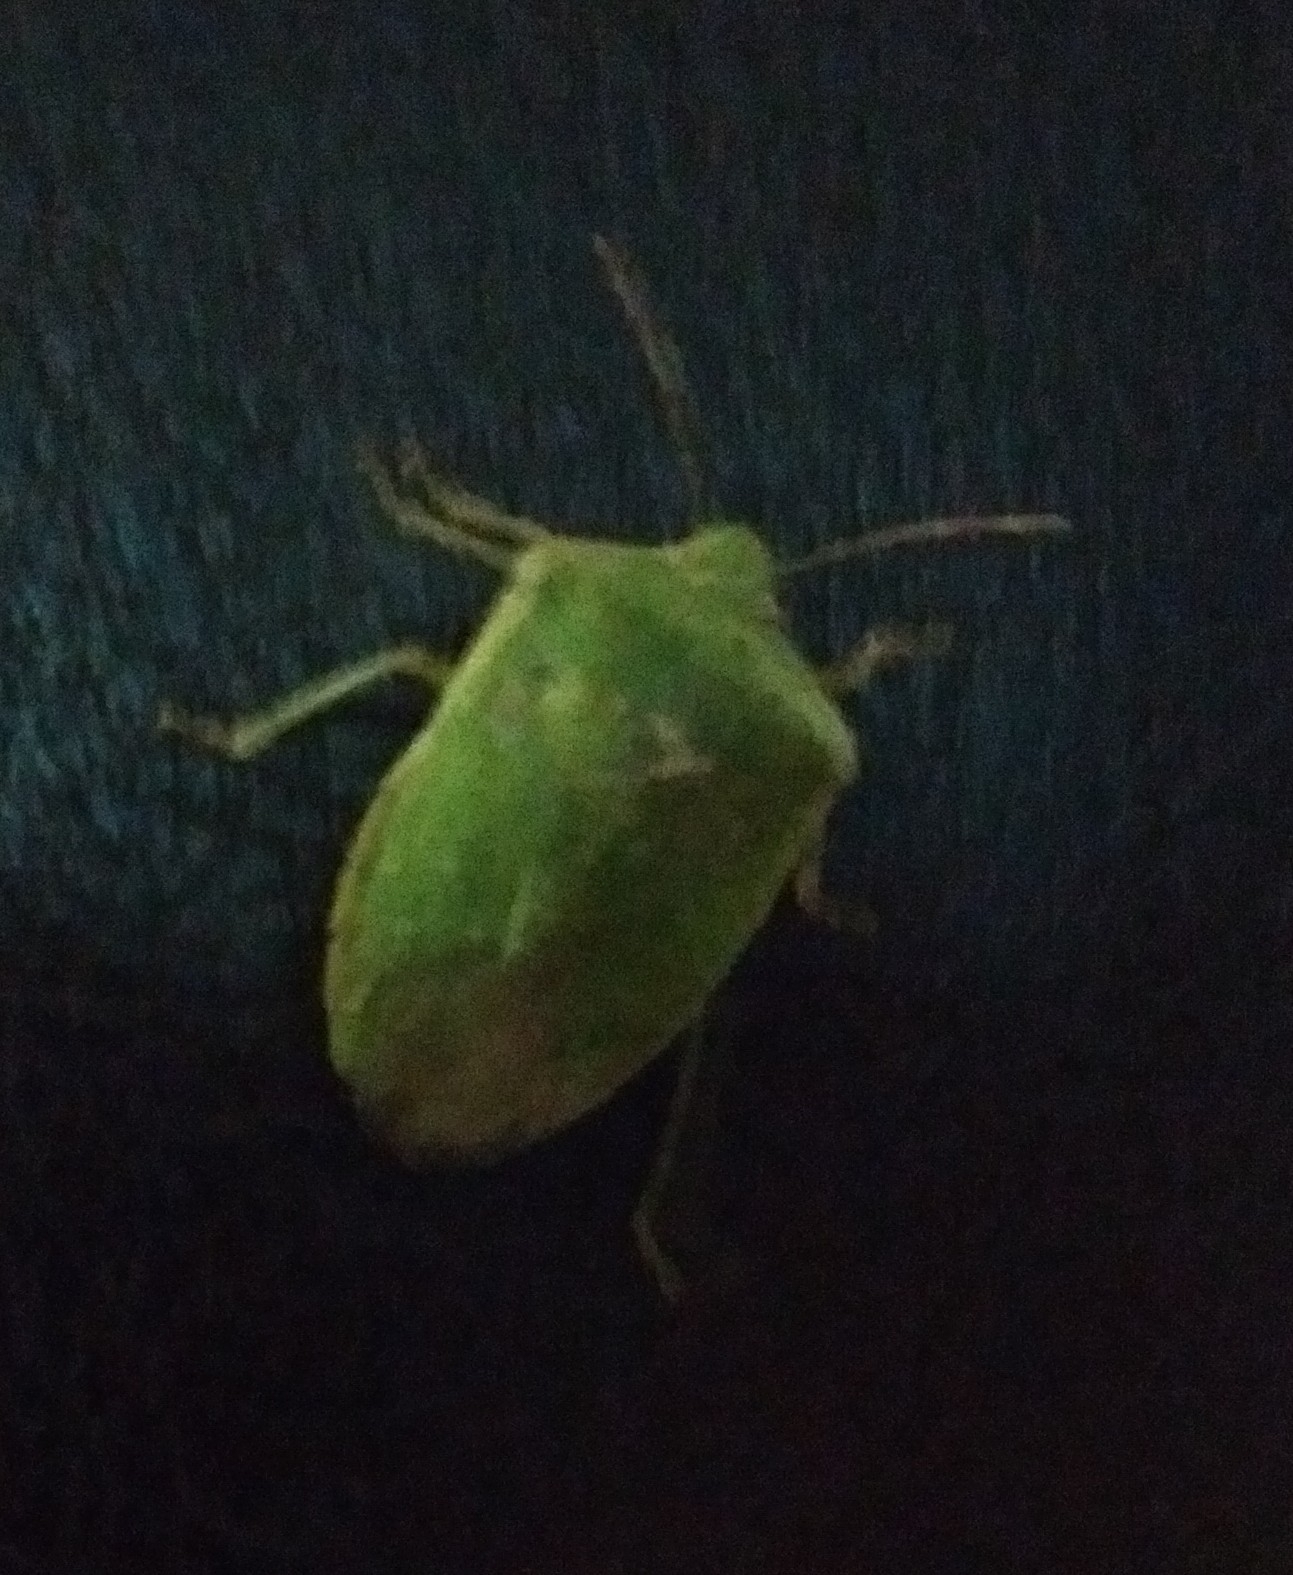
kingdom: Animalia
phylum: Arthropoda
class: Insecta
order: Hemiptera
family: Pentatomidae
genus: Nezara
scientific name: Nezara viridula
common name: Southern green stink bug
